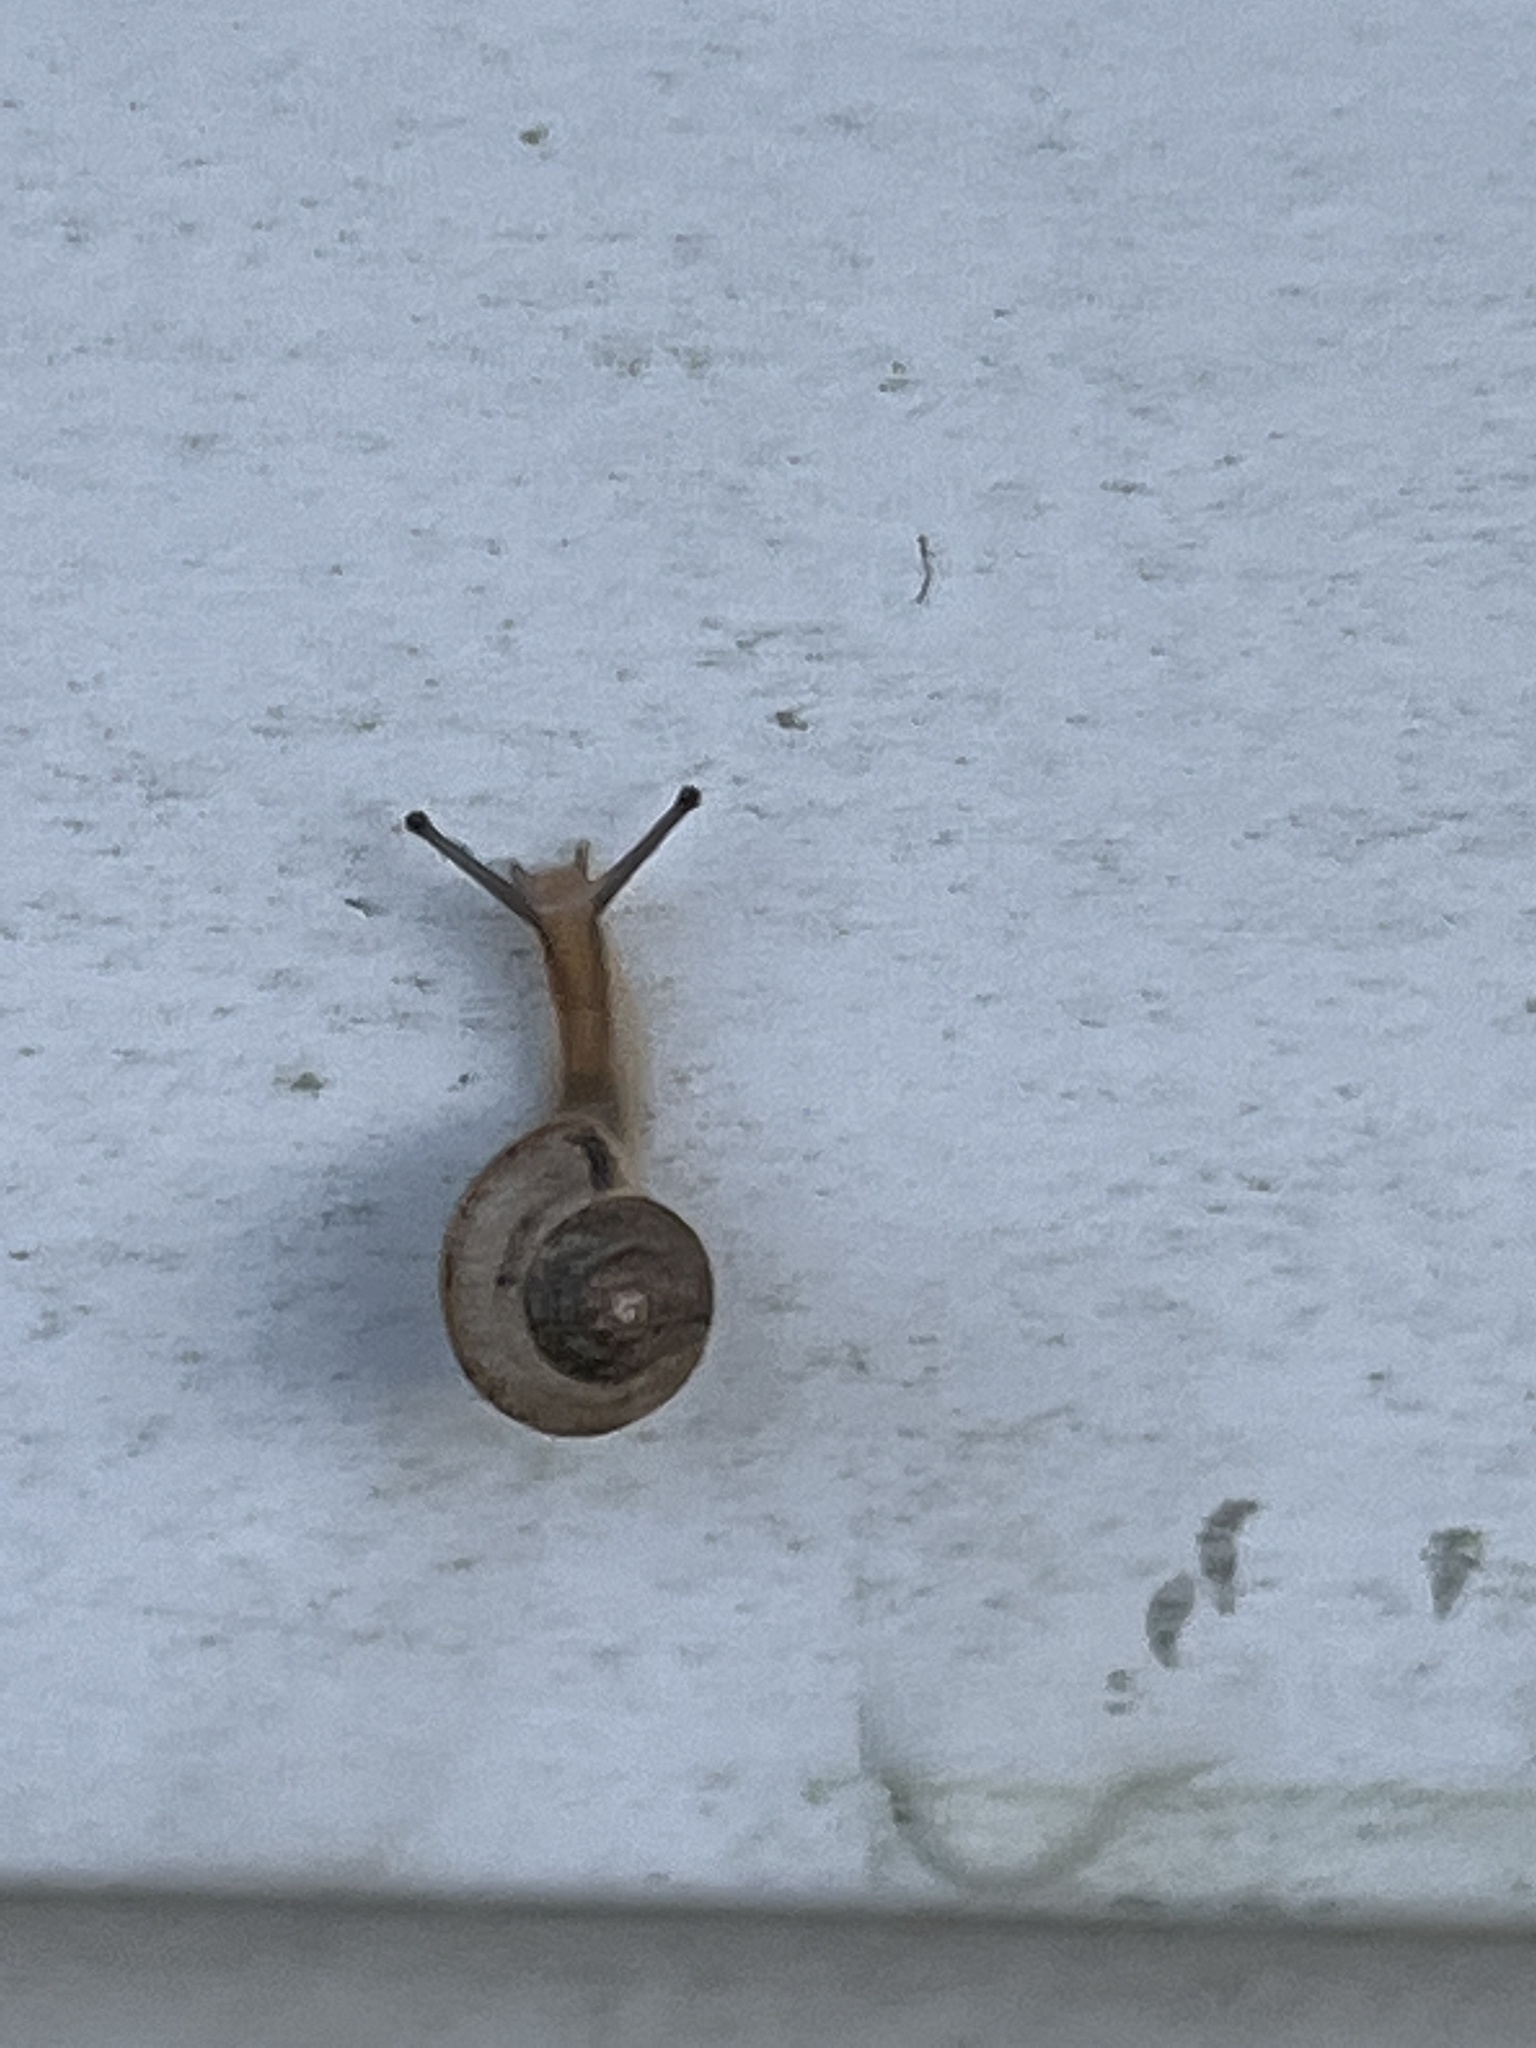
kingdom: Animalia
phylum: Mollusca
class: Gastropoda
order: Stylommatophora
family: Camaenidae
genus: Bradybaena
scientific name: Bradybaena similaris
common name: Asian trampsnail
